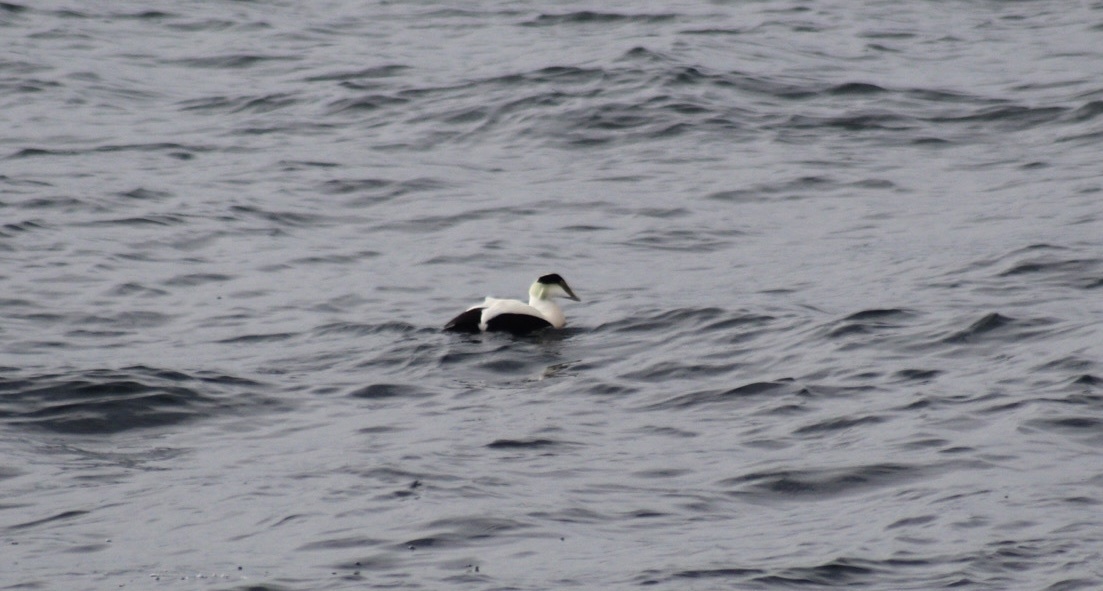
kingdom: Animalia
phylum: Chordata
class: Aves
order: Anseriformes
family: Anatidae
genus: Somateria
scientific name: Somateria mollissima
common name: Common eider
